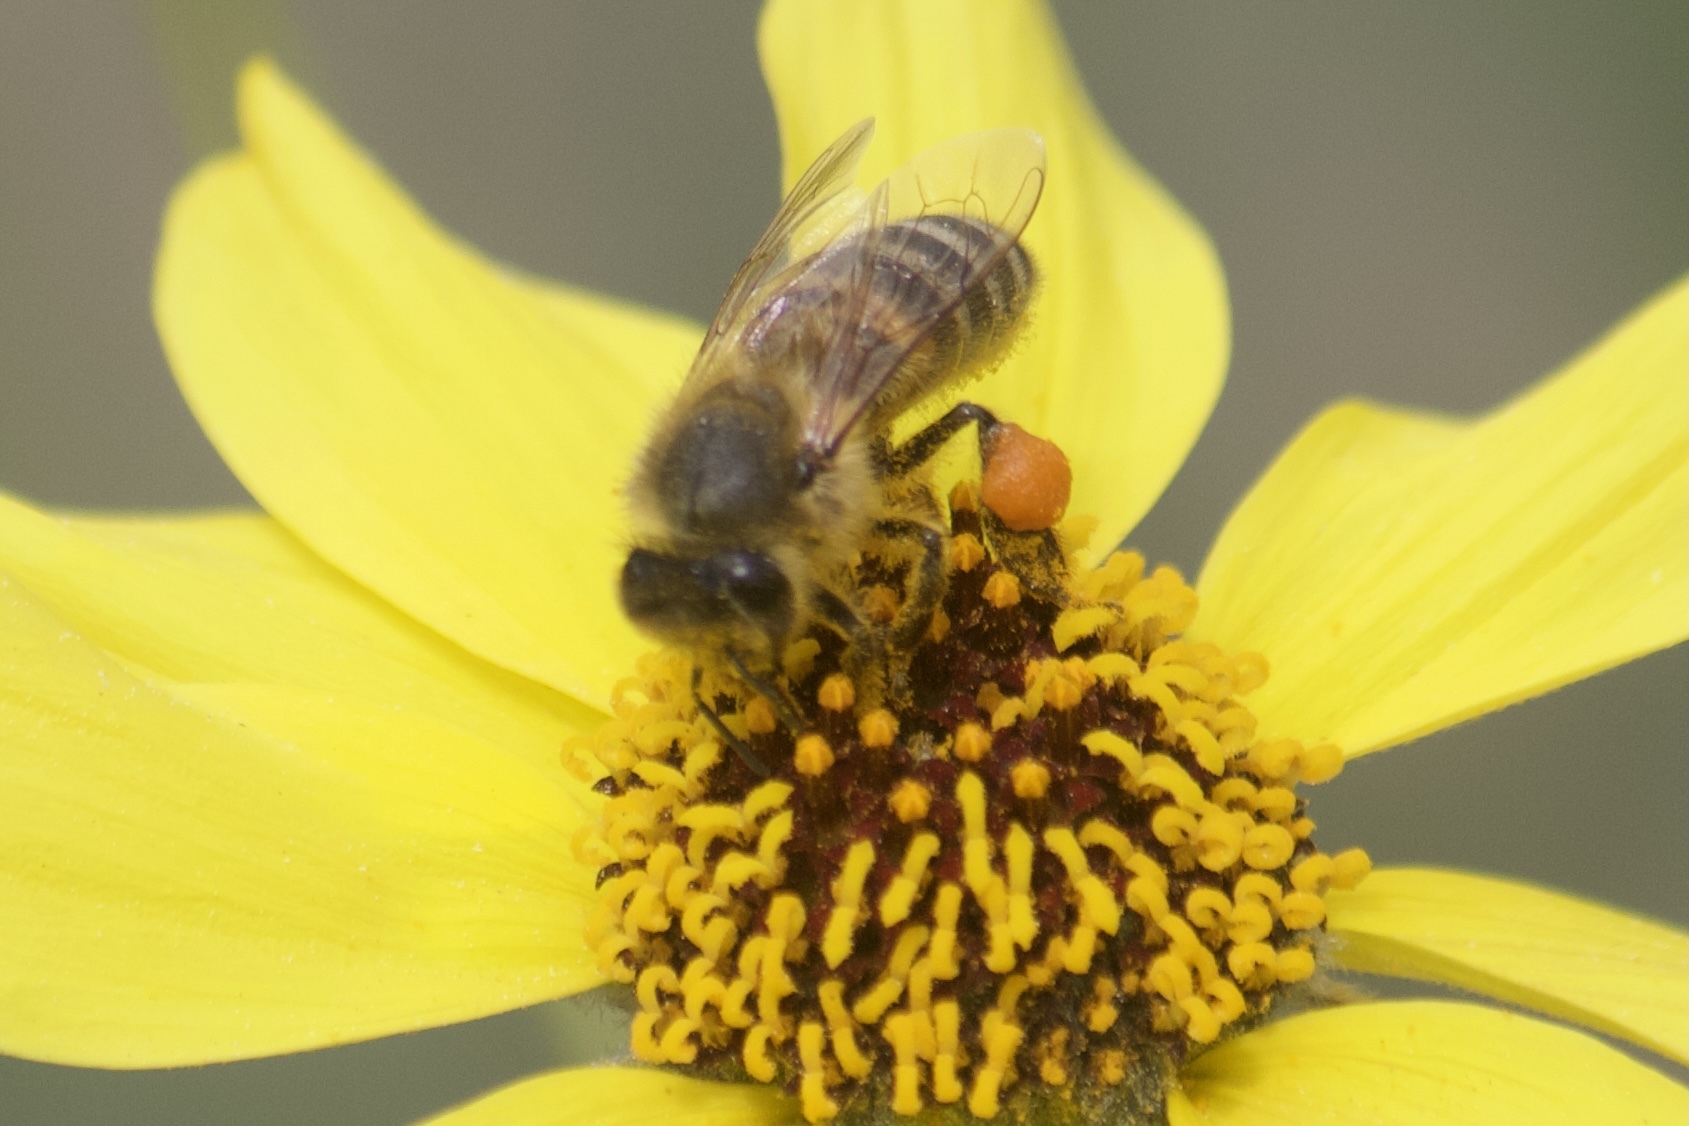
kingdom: Animalia
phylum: Arthropoda
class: Insecta
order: Hymenoptera
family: Apidae
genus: Apis
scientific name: Apis mellifera
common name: Honey bee
